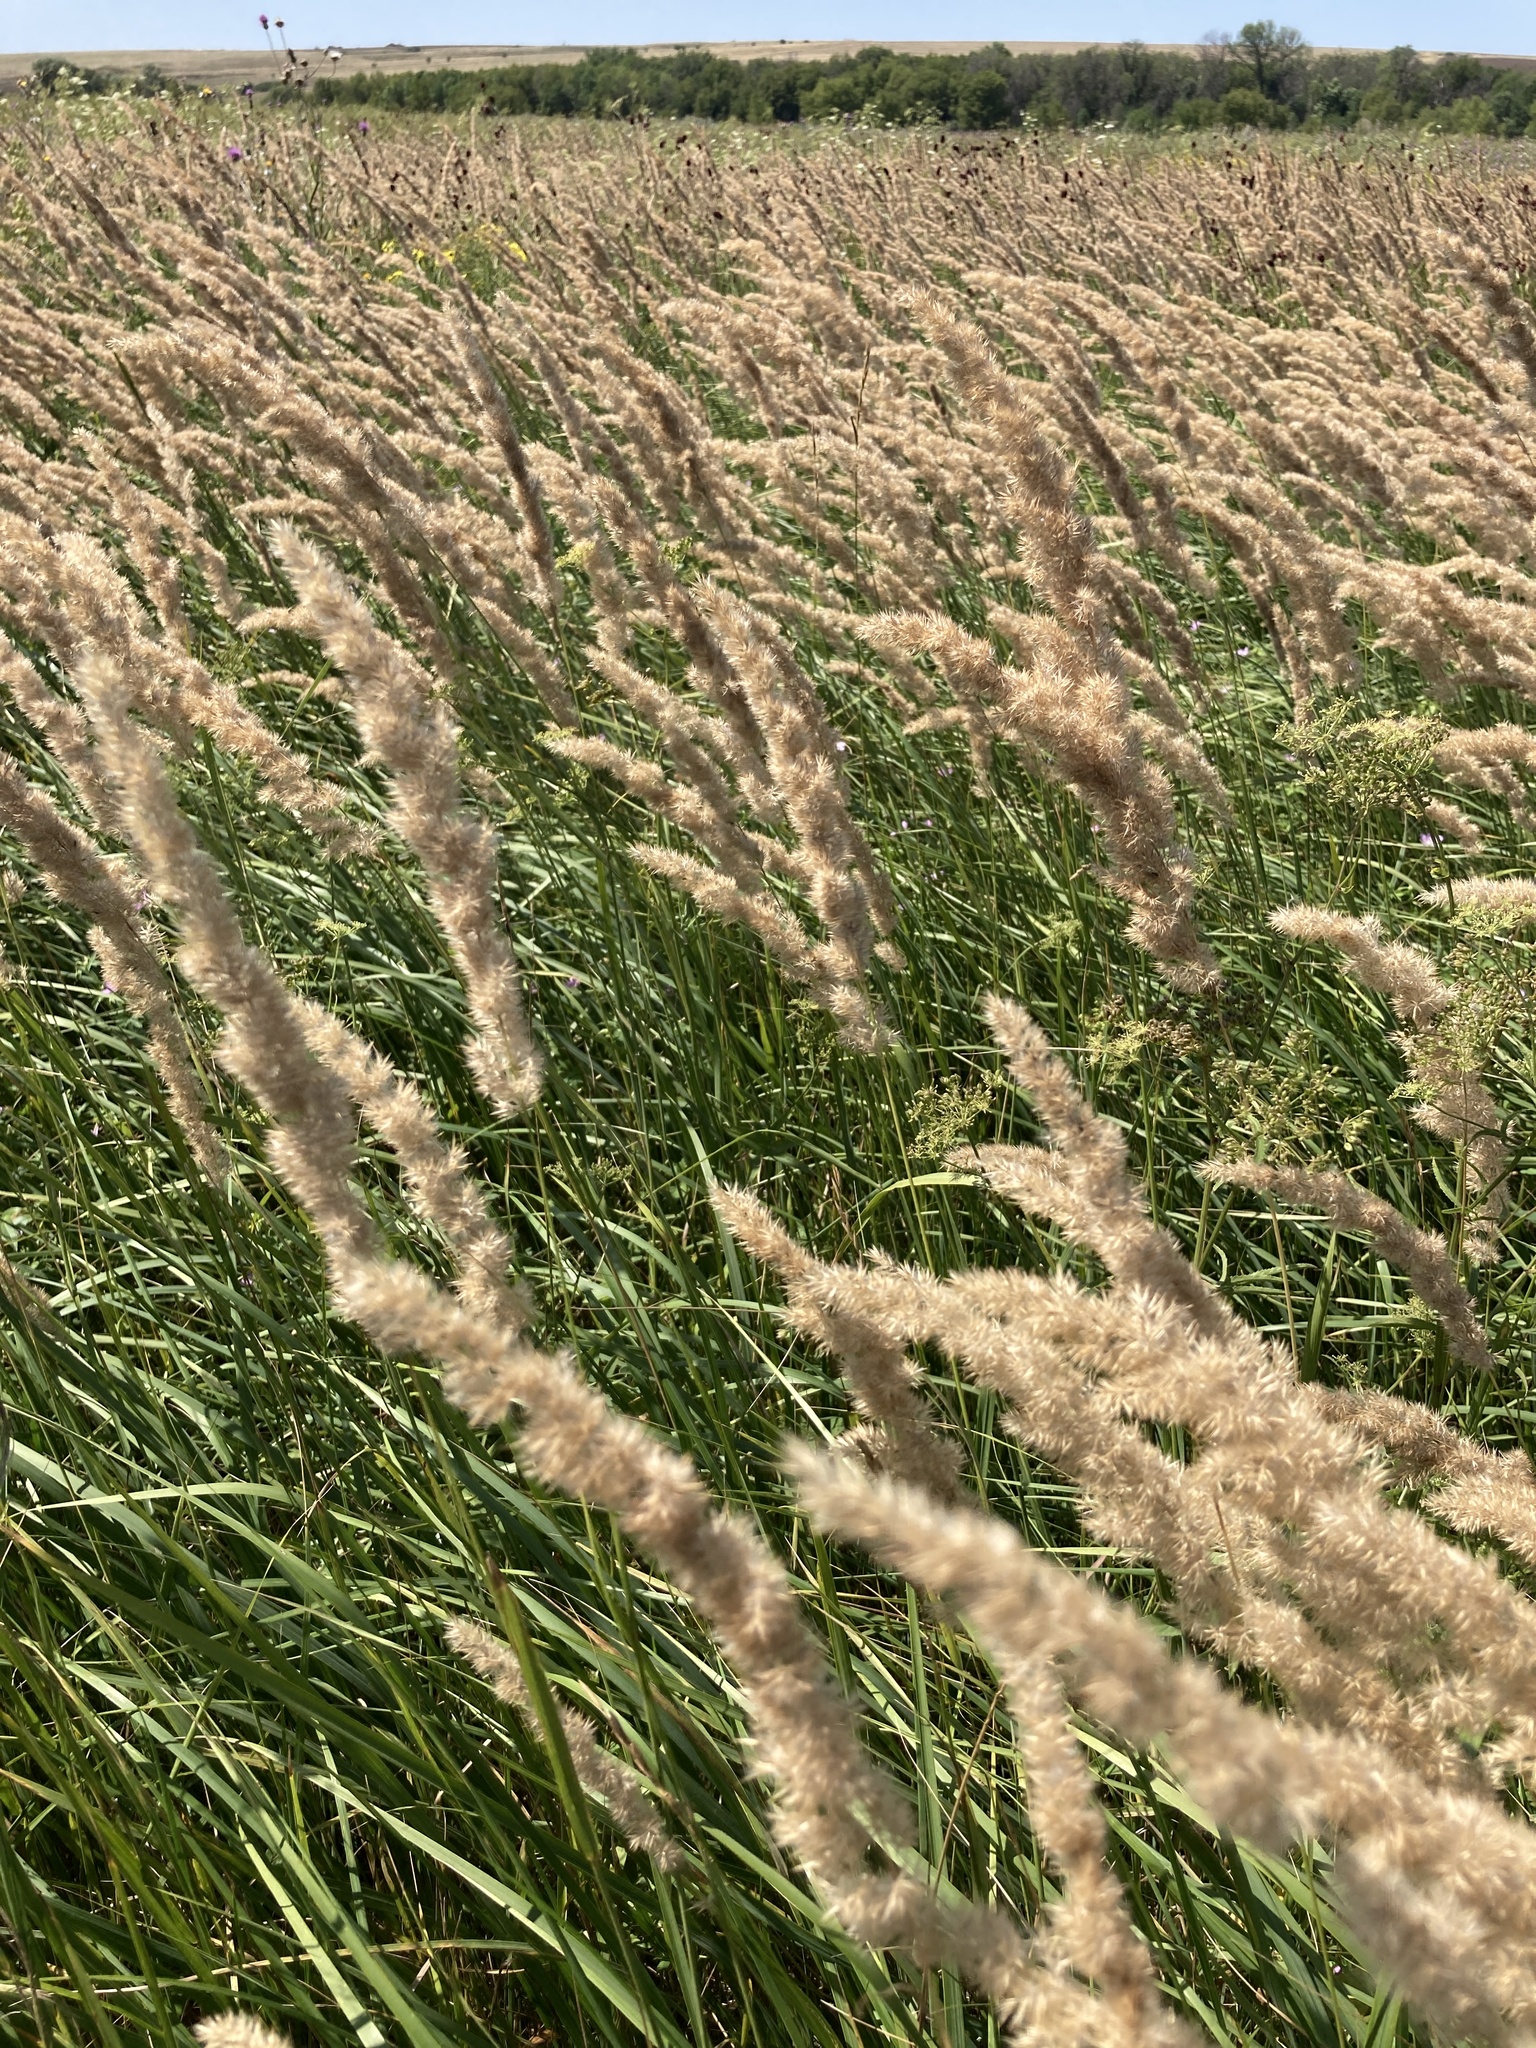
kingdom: Plantae
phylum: Tracheophyta
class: Liliopsida
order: Poales
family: Poaceae
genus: Calamagrostis
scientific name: Calamagrostis epigejos
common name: Wood small-reed
